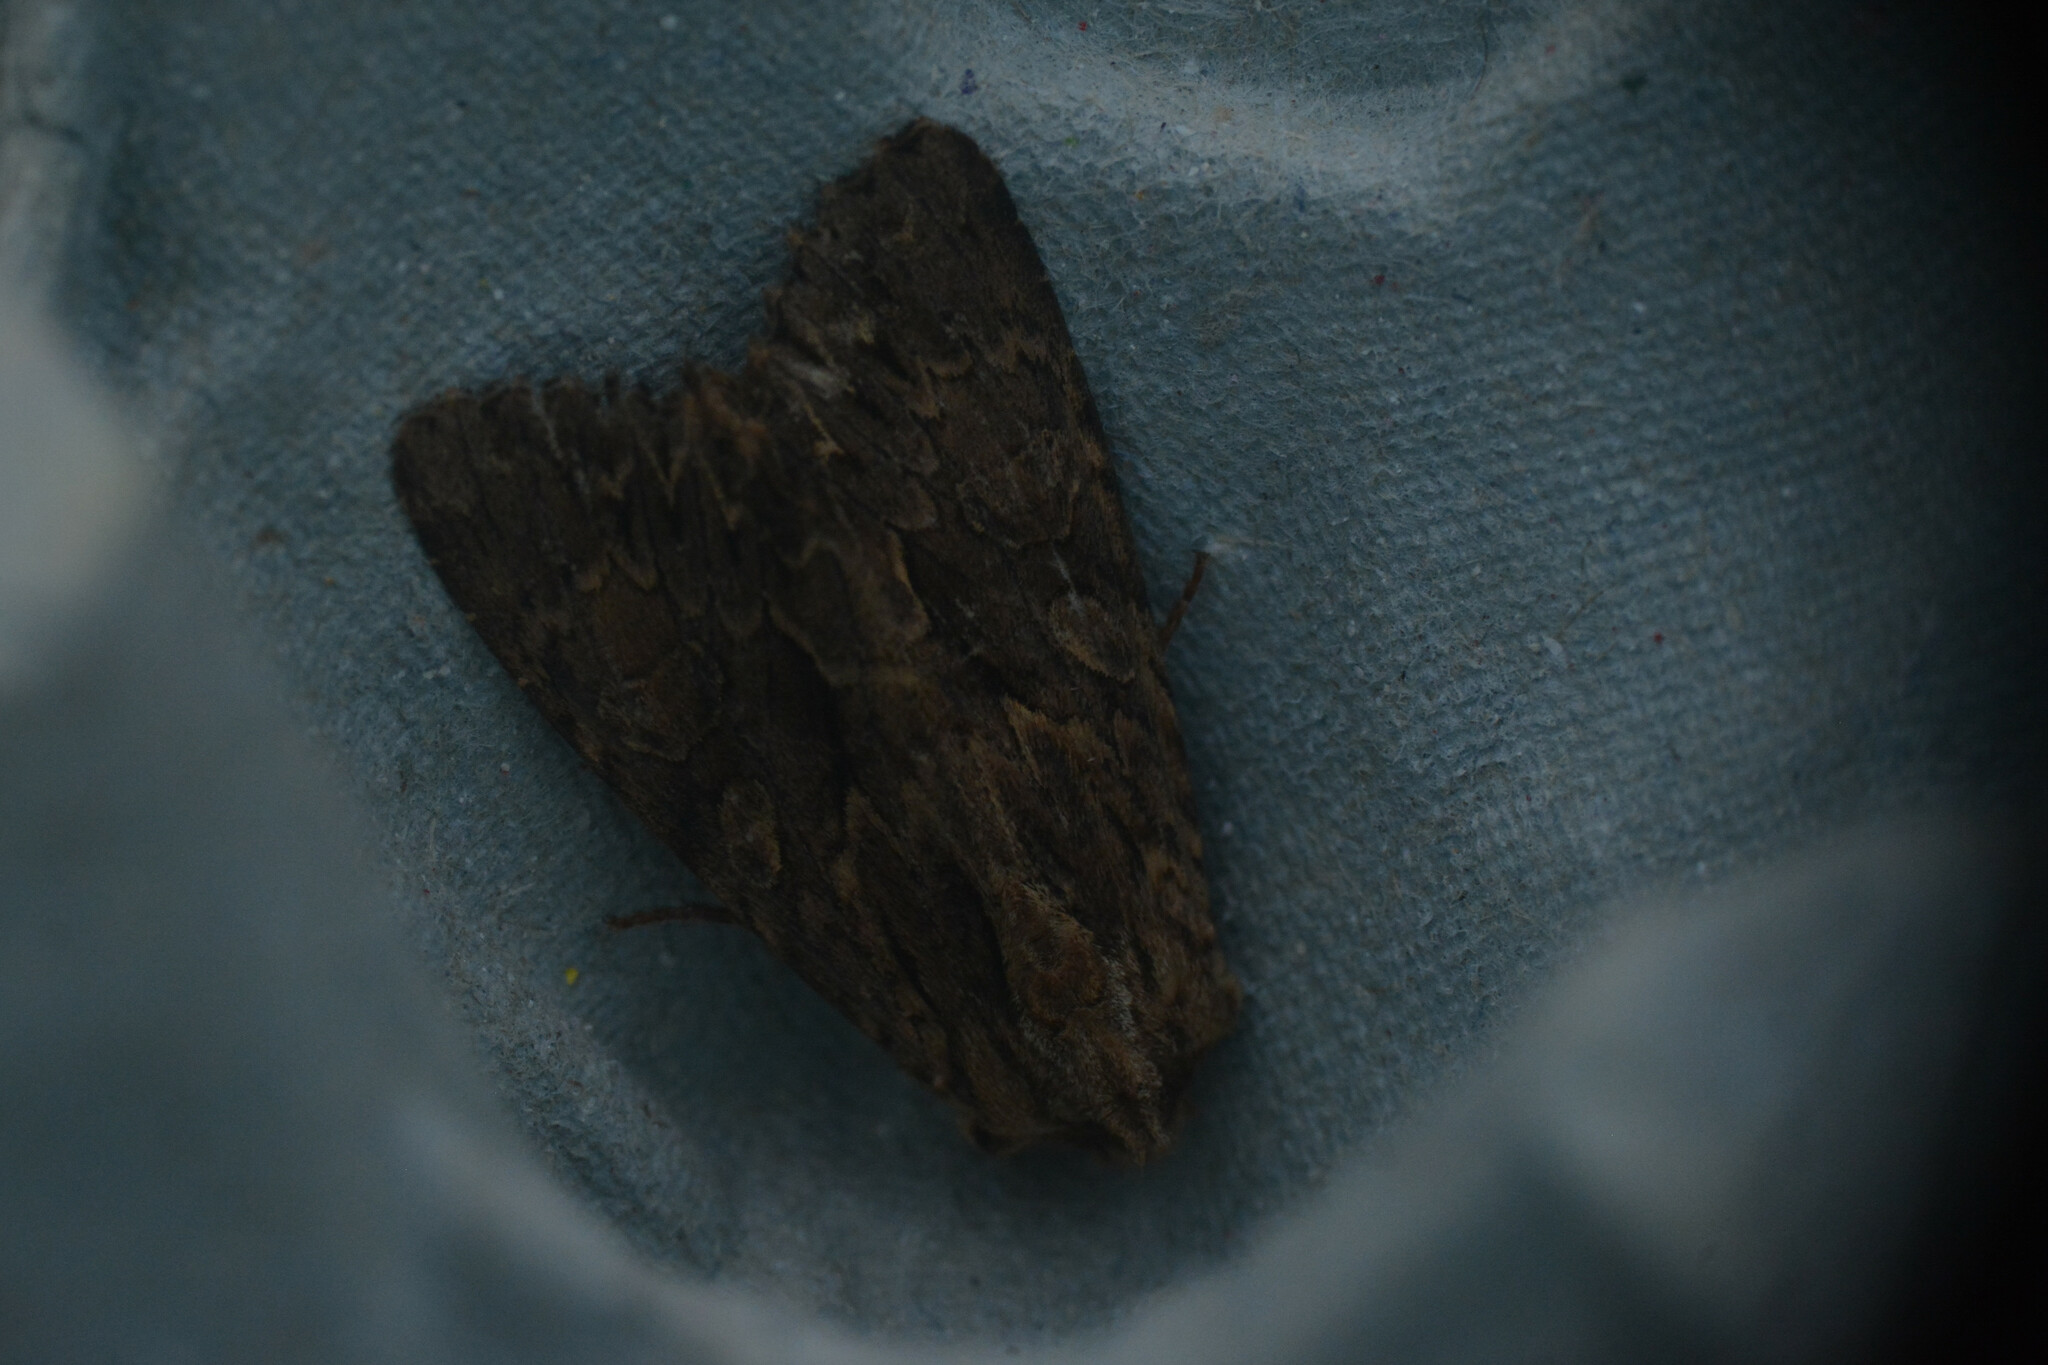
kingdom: Animalia
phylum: Arthropoda
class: Insecta
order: Lepidoptera
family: Noctuidae
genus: Apamea
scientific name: Apamea monoglypha
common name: Dark arches
